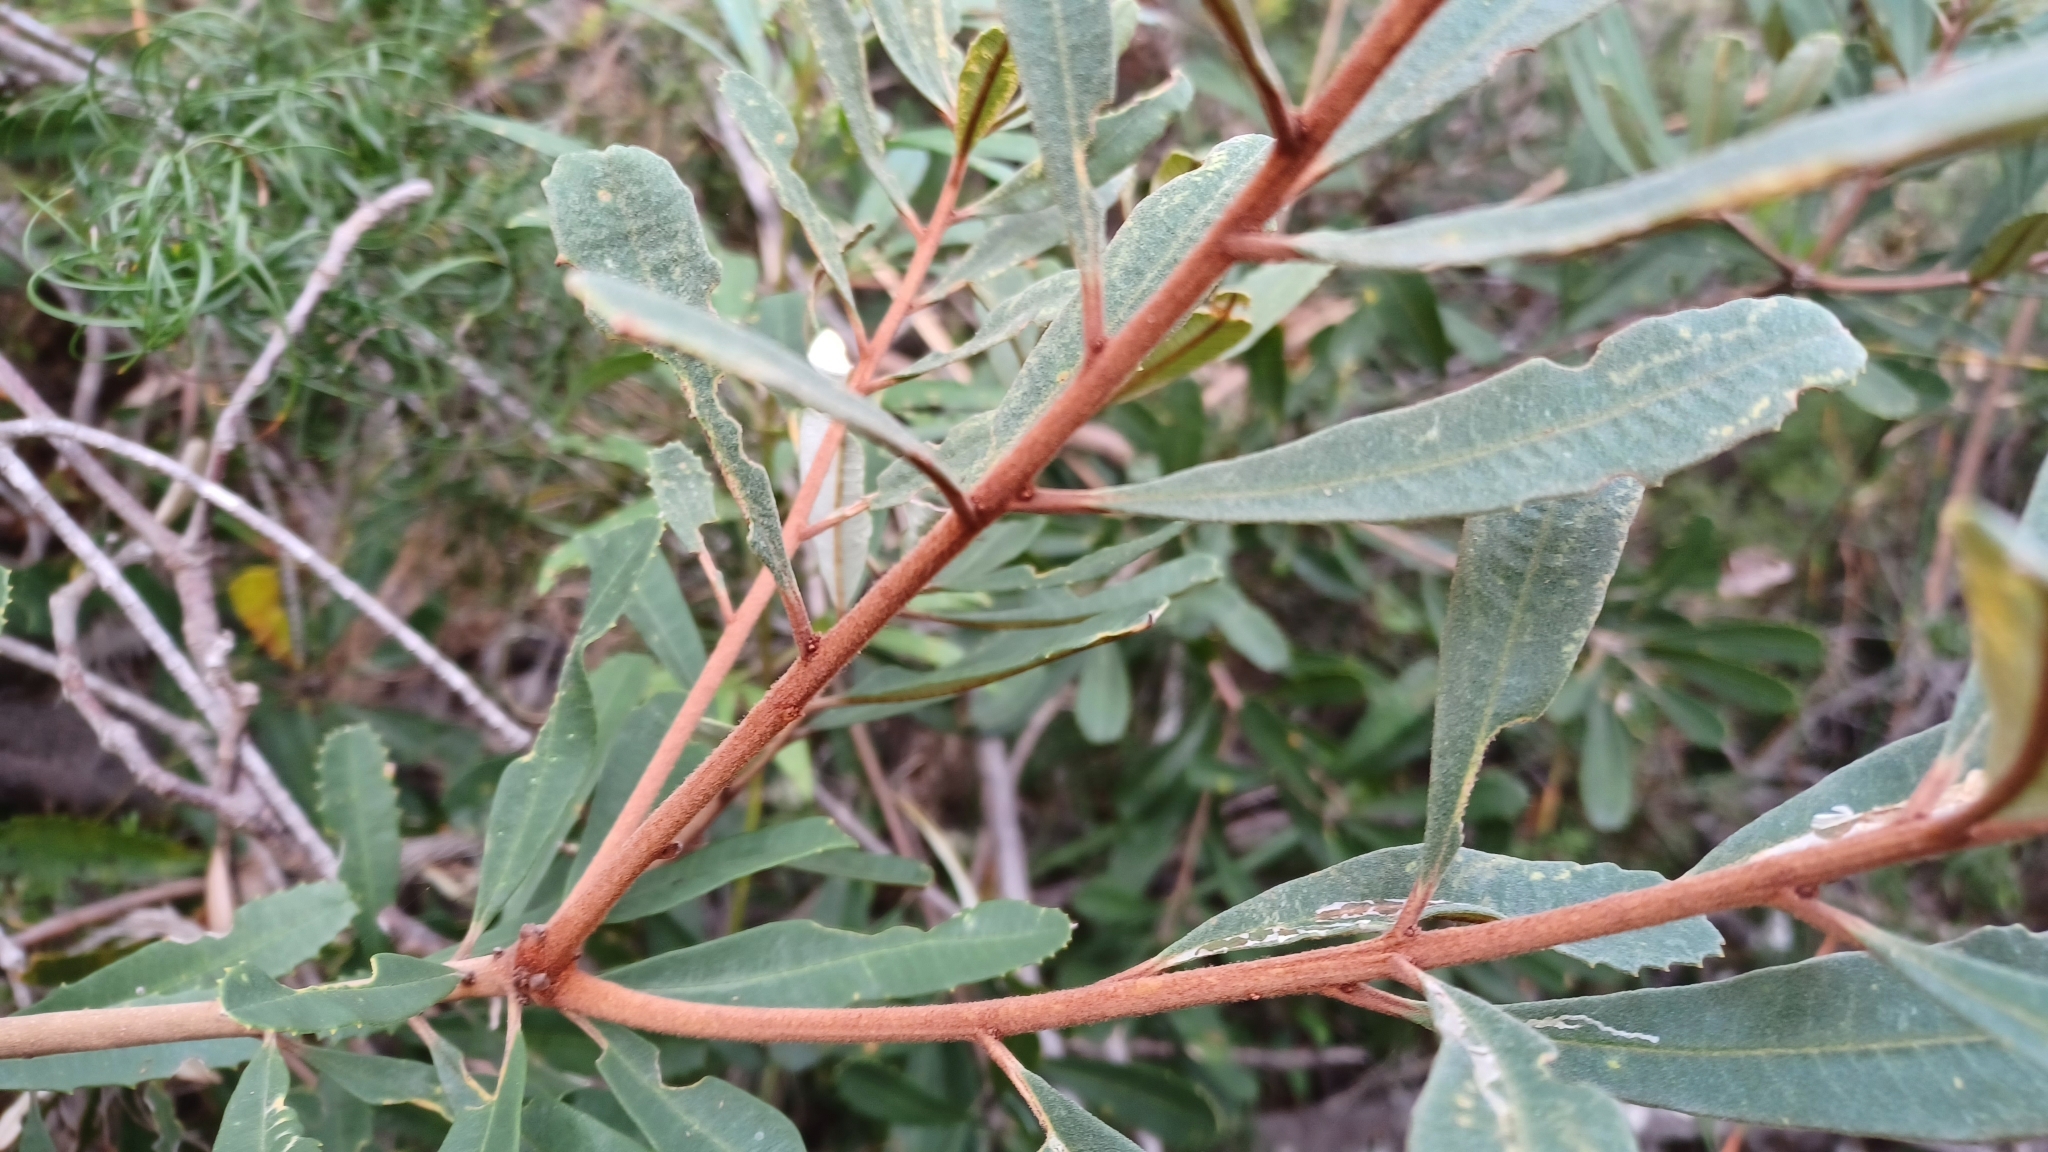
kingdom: Plantae
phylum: Tracheophyta
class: Magnoliopsida
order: Proteales
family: Proteaceae
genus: Banksia
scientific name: Banksia oblongifolia
